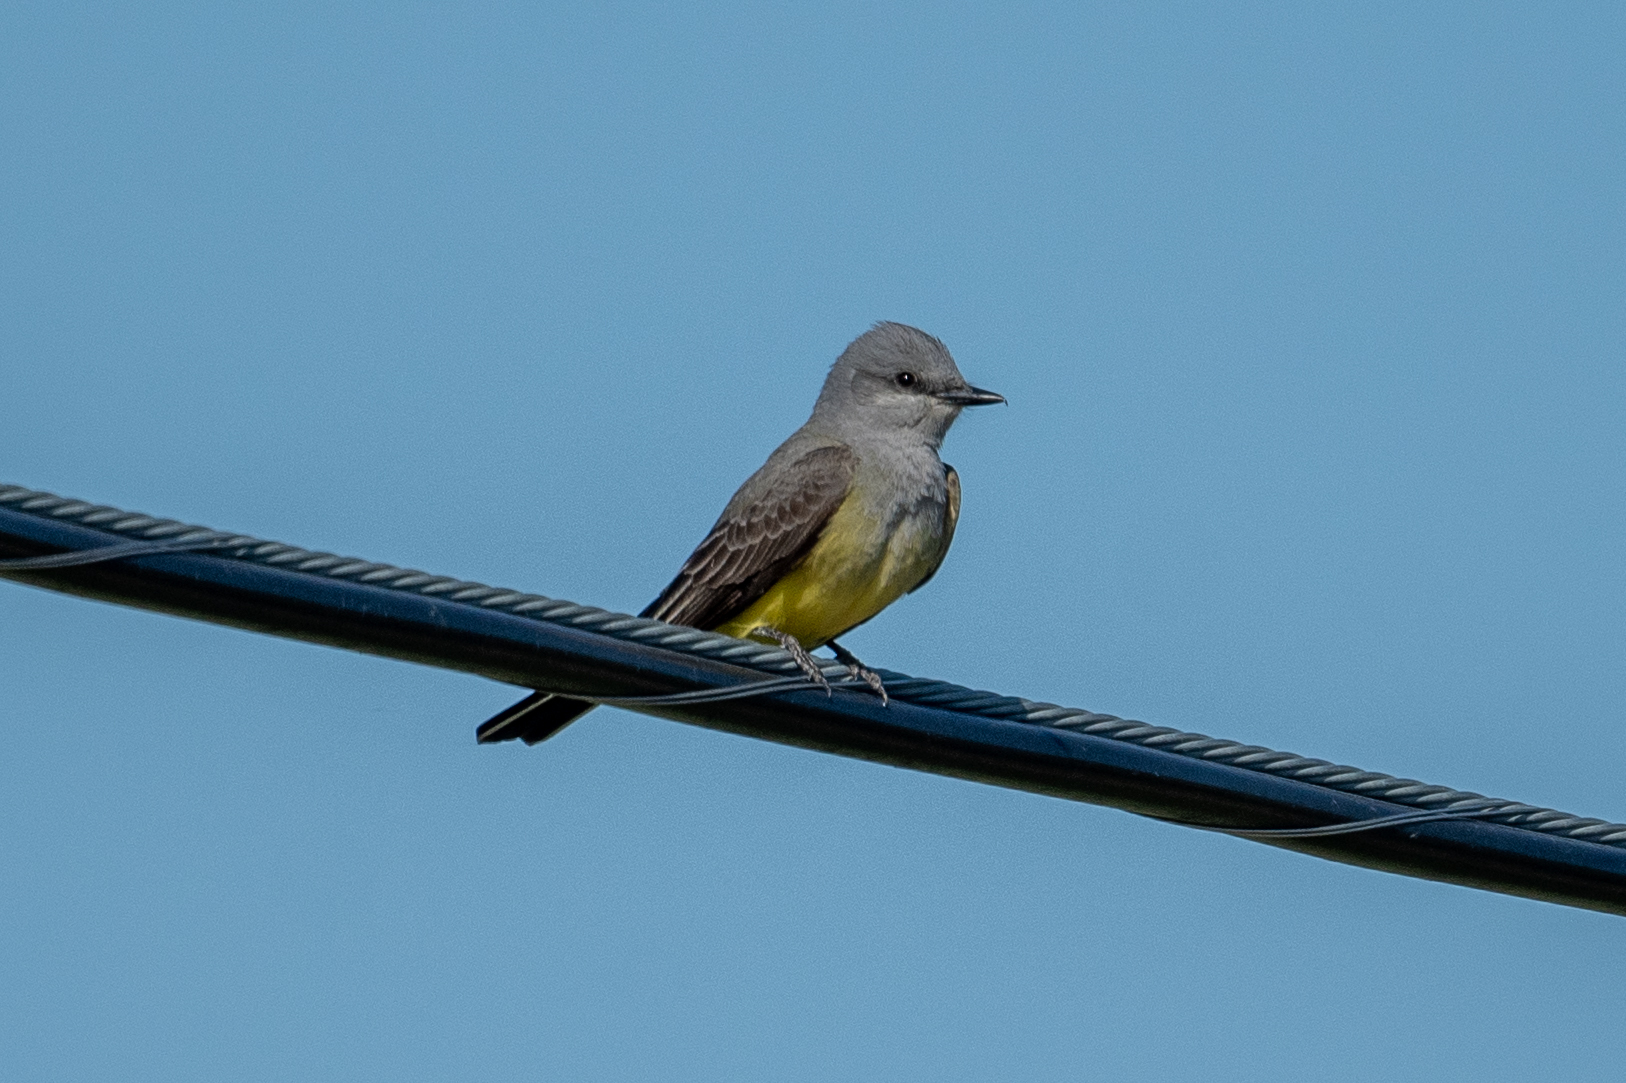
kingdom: Animalia
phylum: Chordata
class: Aves
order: Passeriformes
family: Tyrannidae
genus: Tyrannus
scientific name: Tyrannus verticalis
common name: Western kingbird
